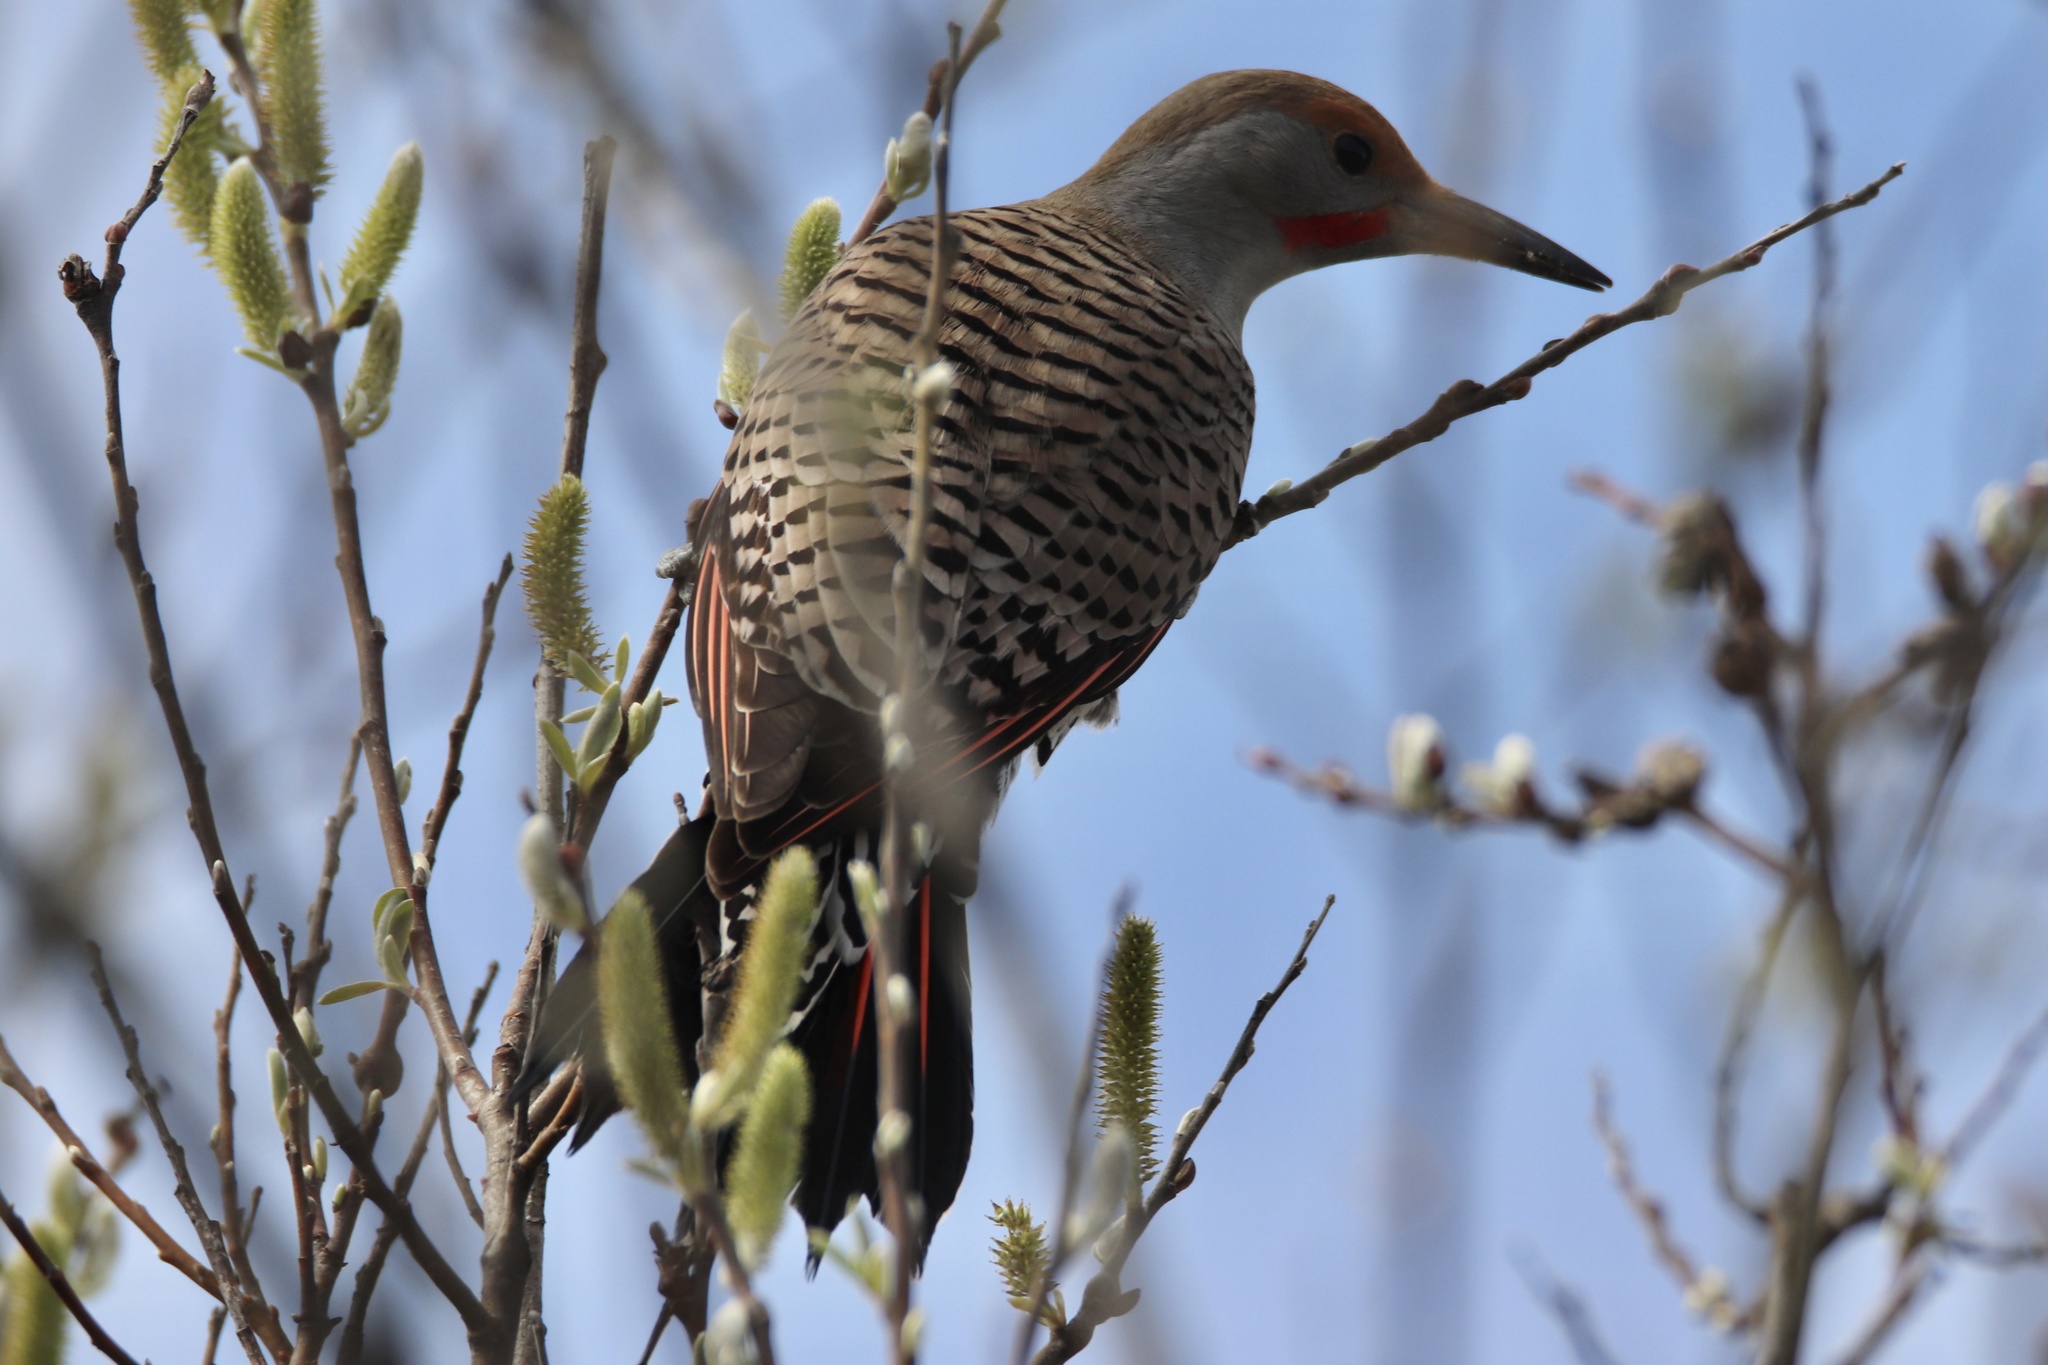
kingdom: Animalia
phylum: Chordata
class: Aves
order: Piciformes
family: Picidae
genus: Colaptes
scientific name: Colaptes auratus
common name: Northern flicker
